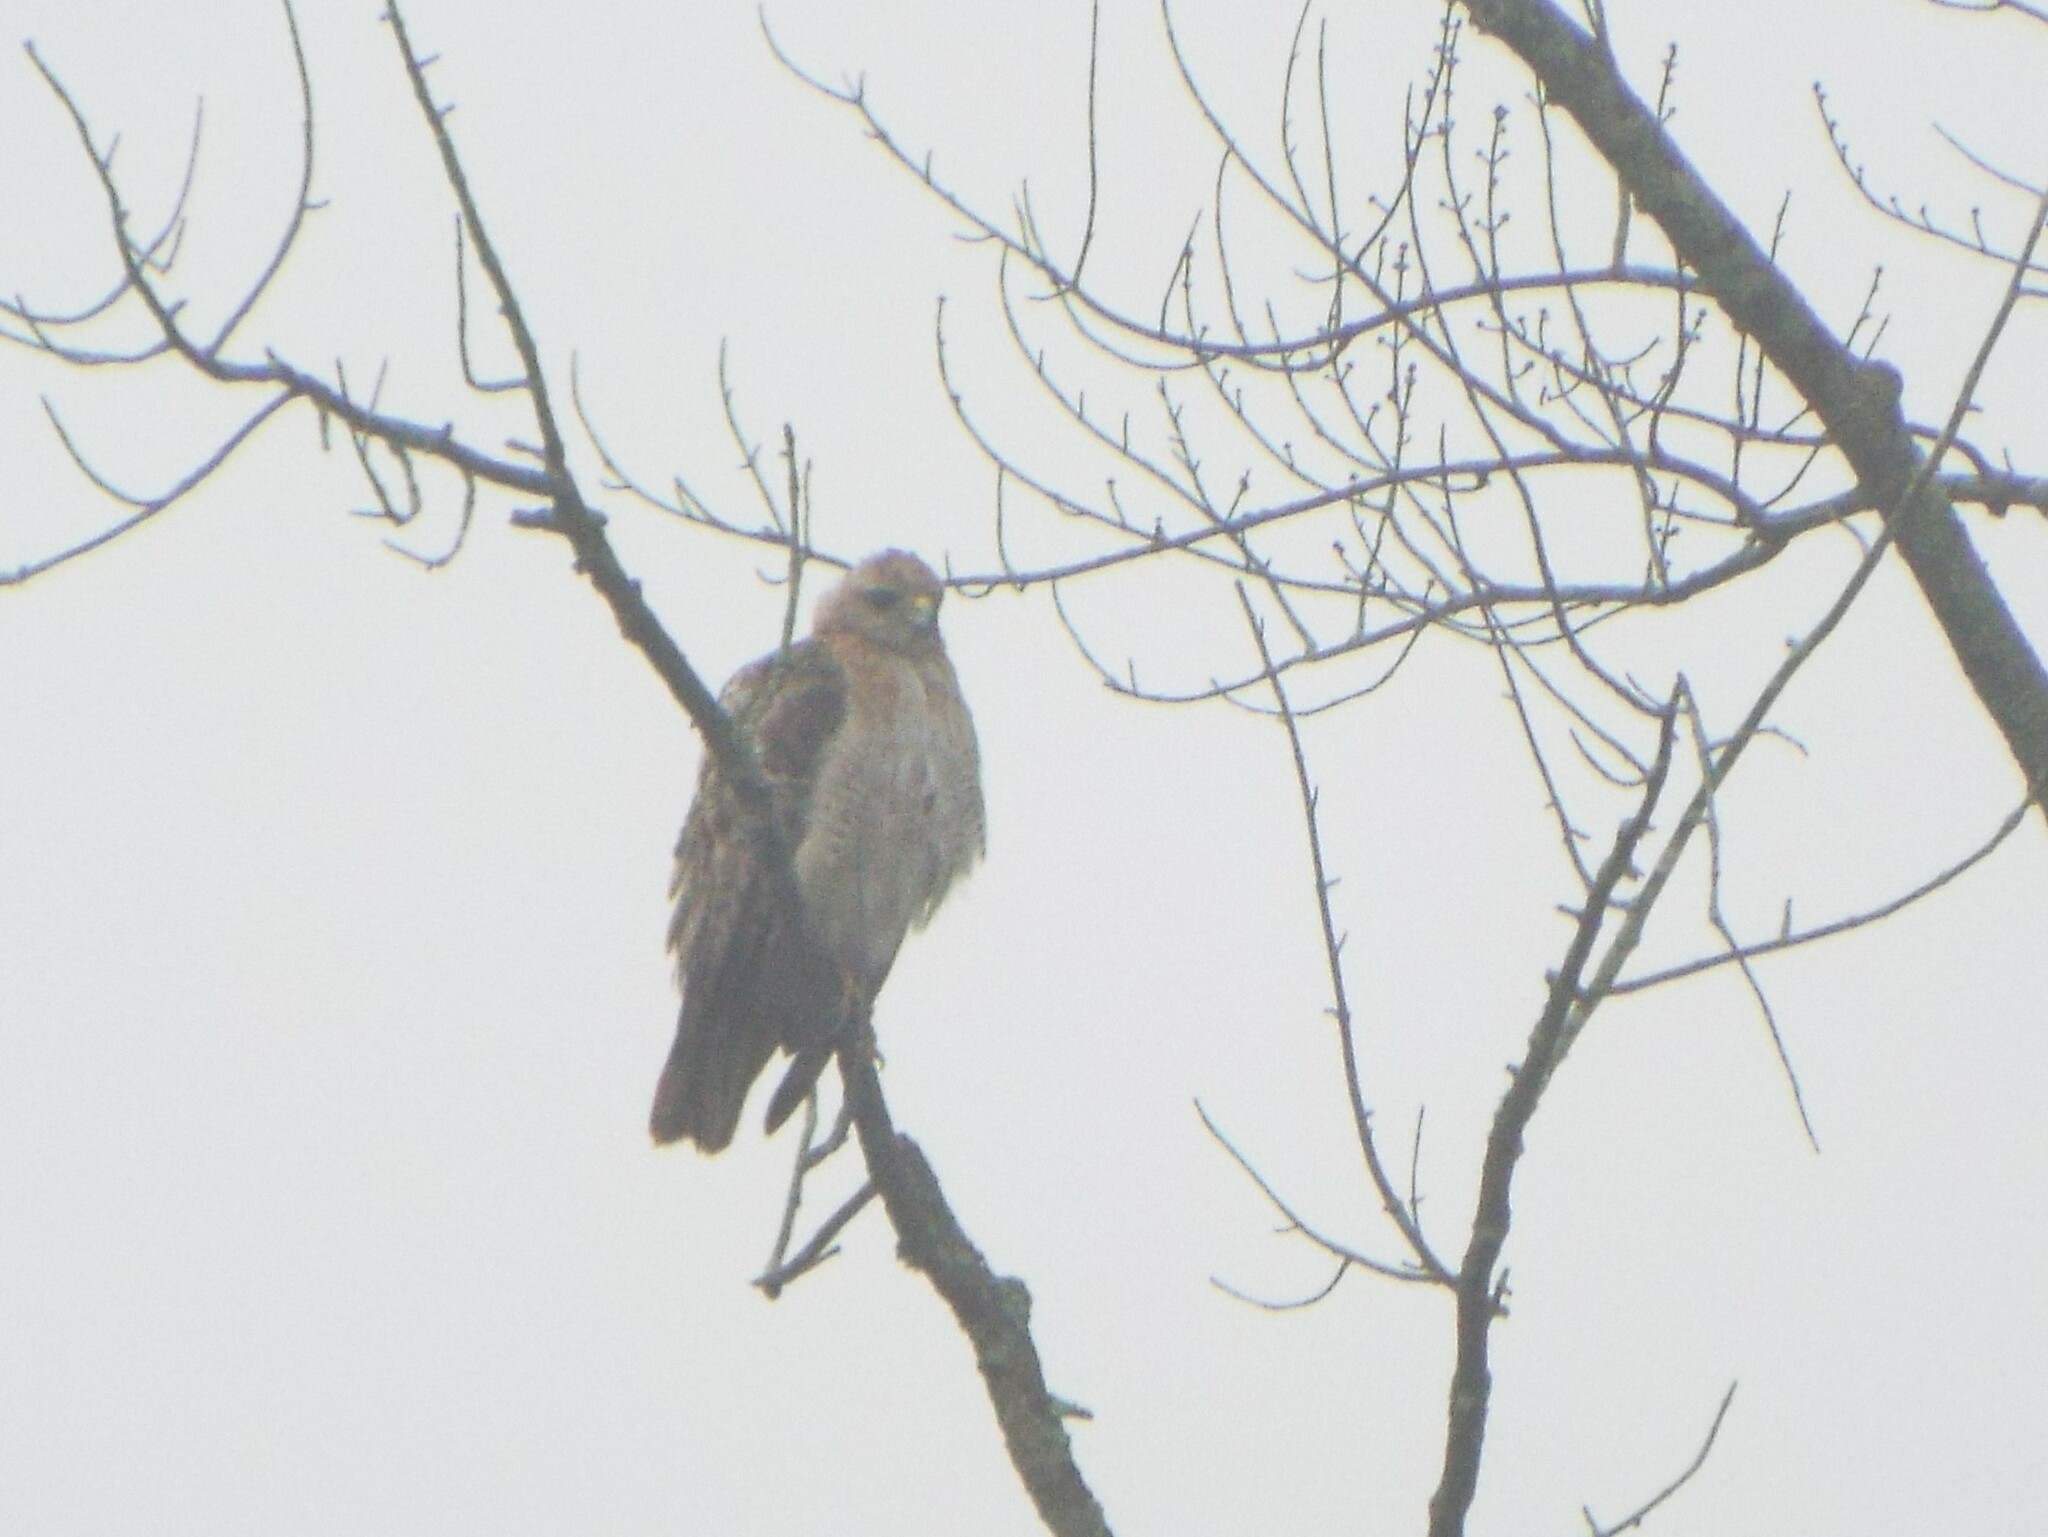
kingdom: Animalia
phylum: Chordata
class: Aves
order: Accipitriformes
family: Accipitridae
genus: Buteo
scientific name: Buteo jamaicensis
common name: Red-tailed hawk
